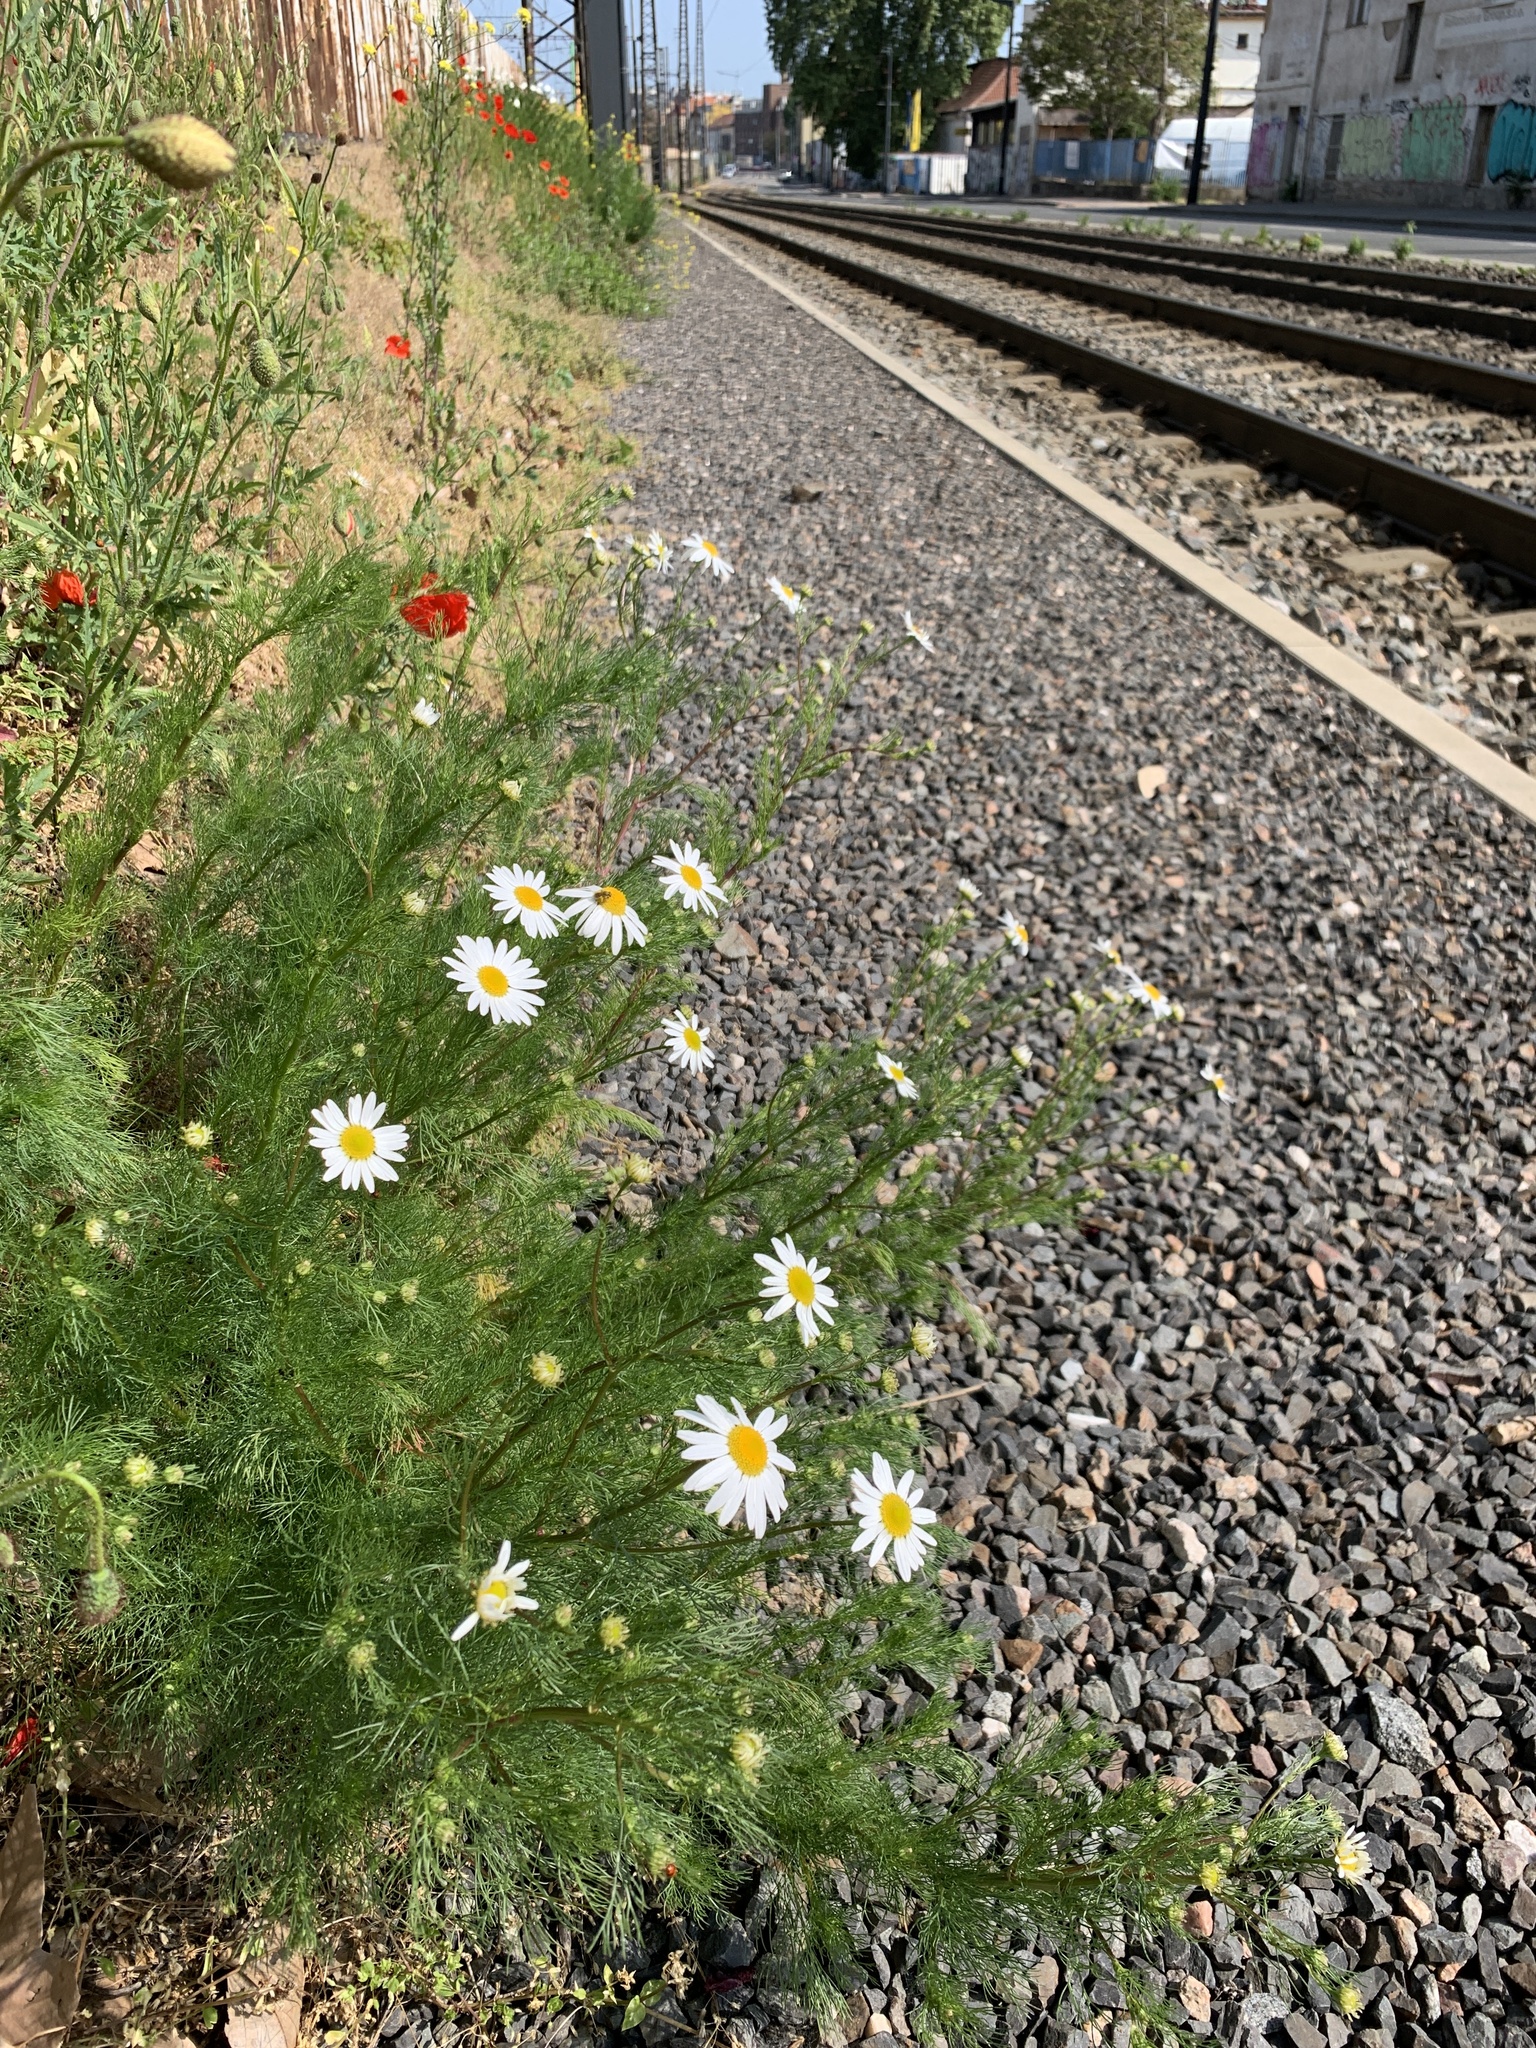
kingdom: Plantae
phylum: Tracheophyta
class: Magnoliopsida
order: Asterales
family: Asteraceae
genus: Tripleurospermum
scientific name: Tripleurospermum inodorum
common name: Scentless mayweed
